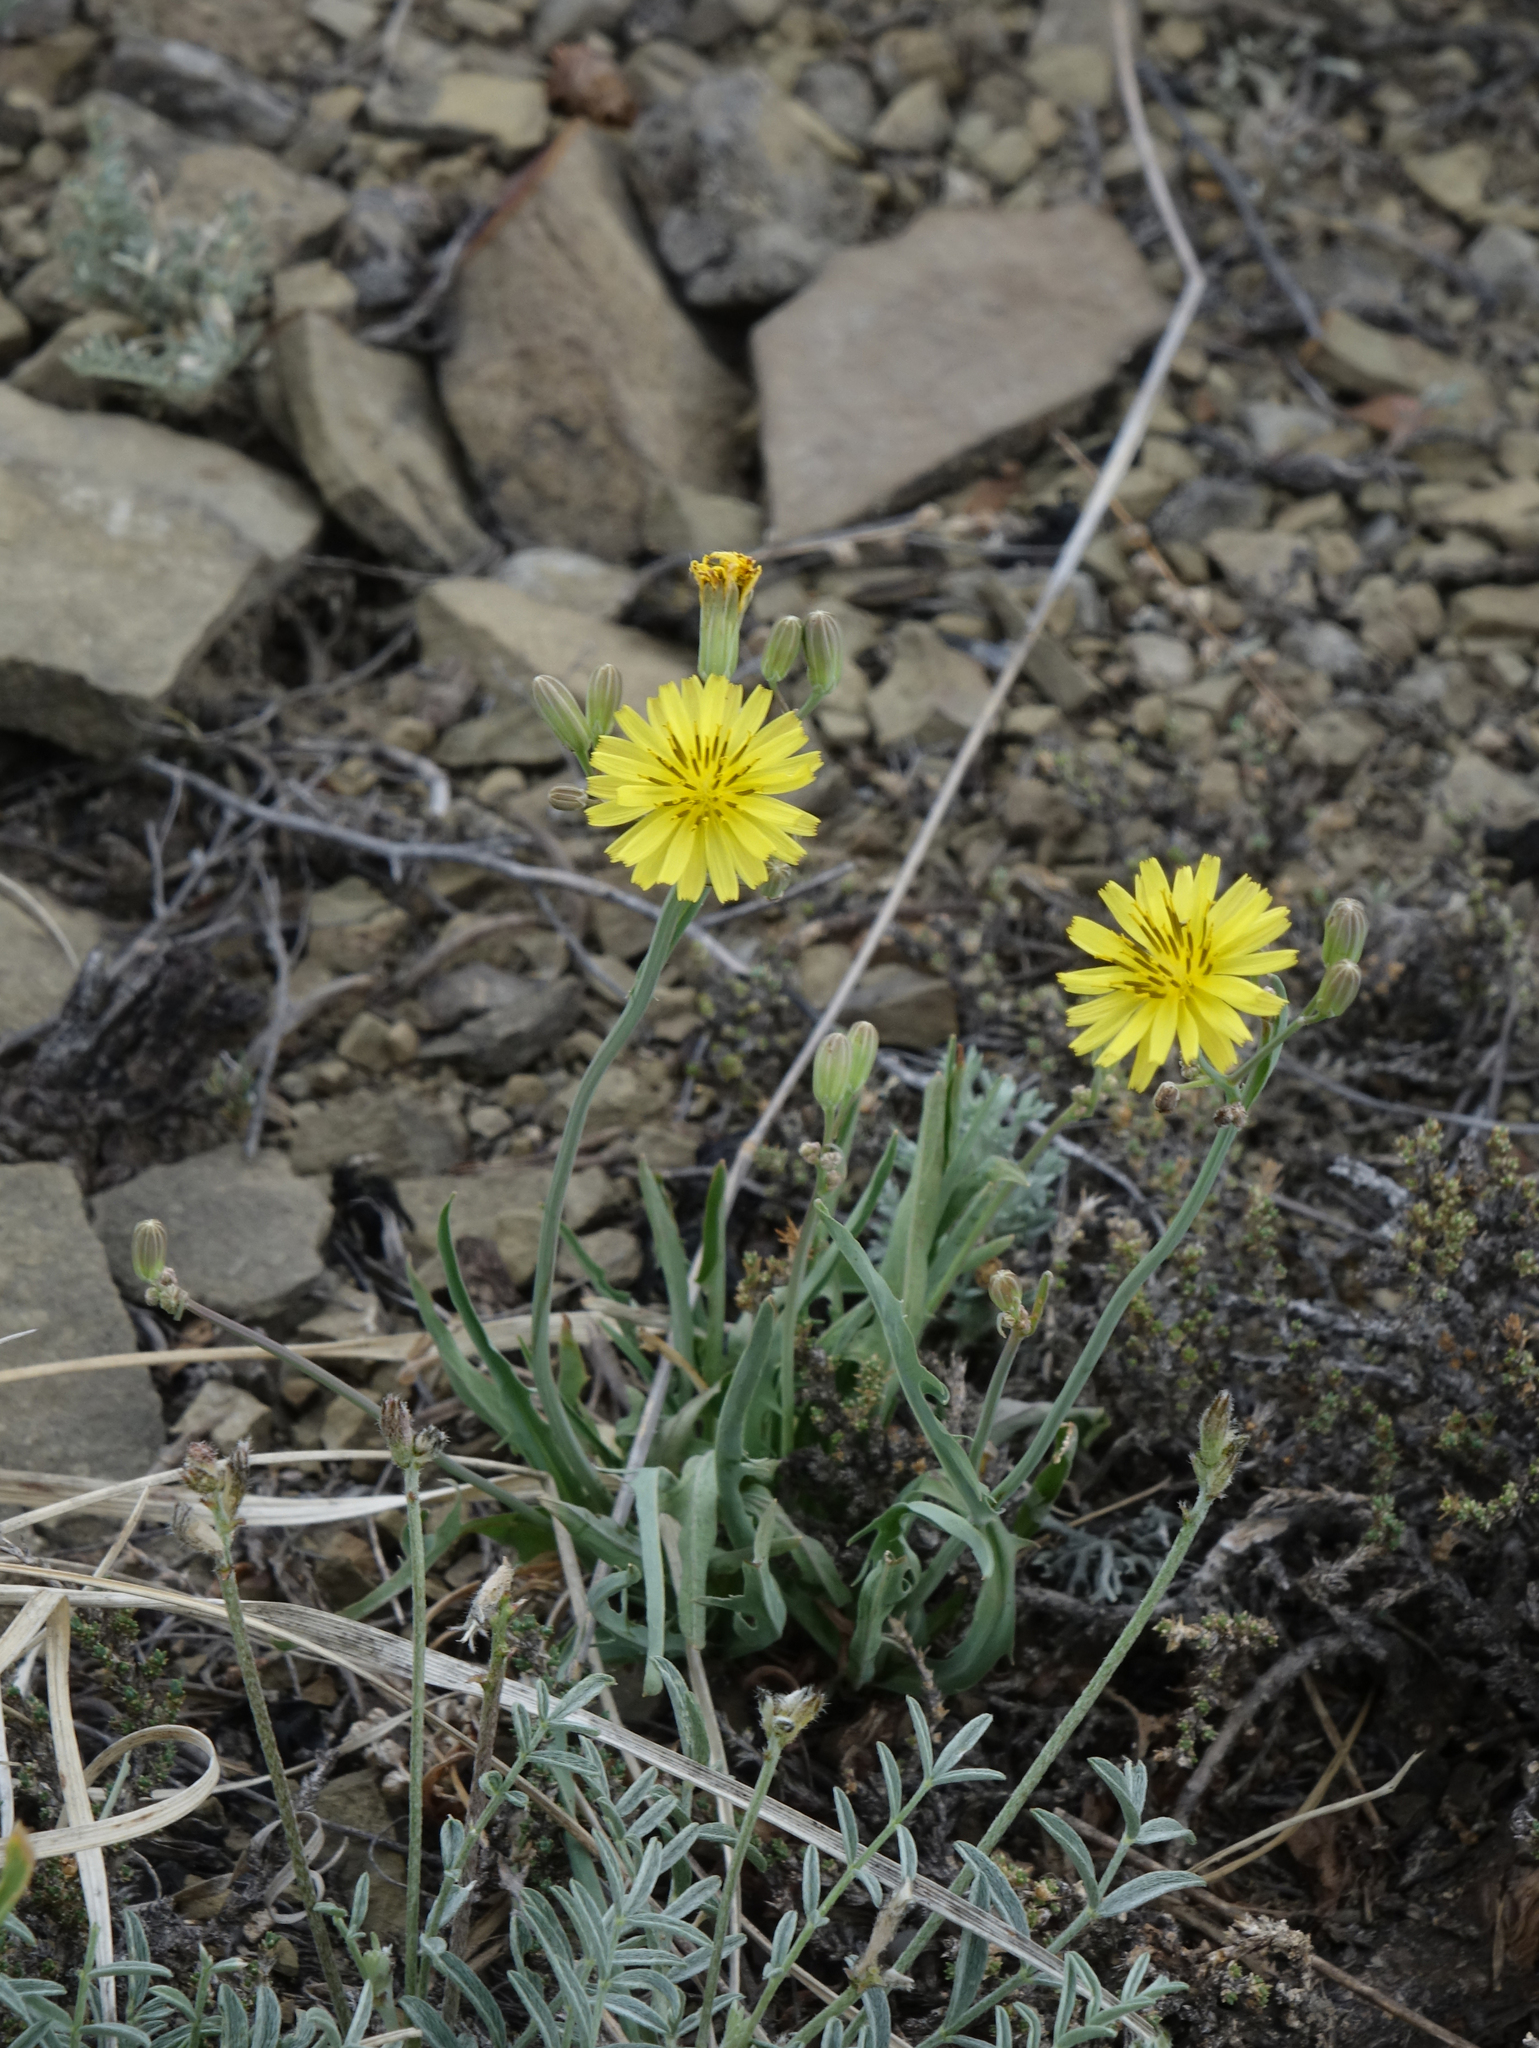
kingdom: Plantae
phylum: Tracheophyta
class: Magnoliopsida
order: Asterales
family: Asteraceae
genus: Ixeris
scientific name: Ixeris chinensis
